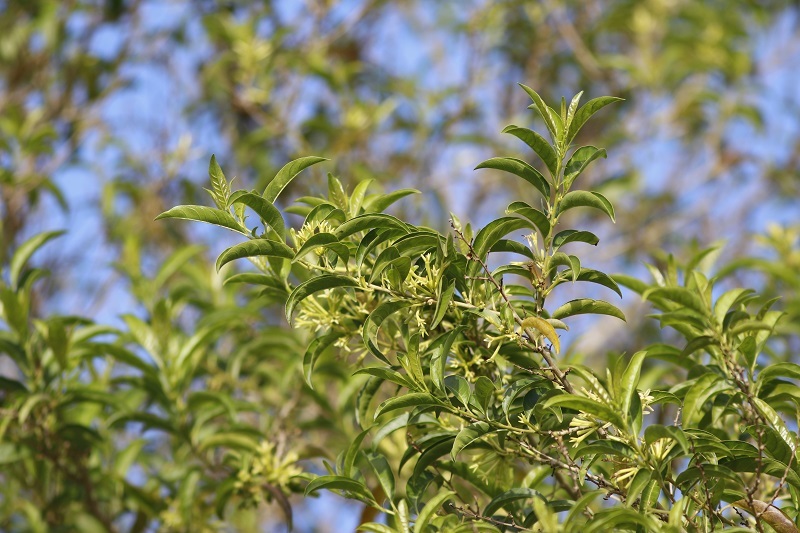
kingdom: Plantae
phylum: Tracheophyta
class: Magnoliopsida
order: Solanales
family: Solanaceae
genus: Cestrum
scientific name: Cestrum laevigatum
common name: Inkberry
